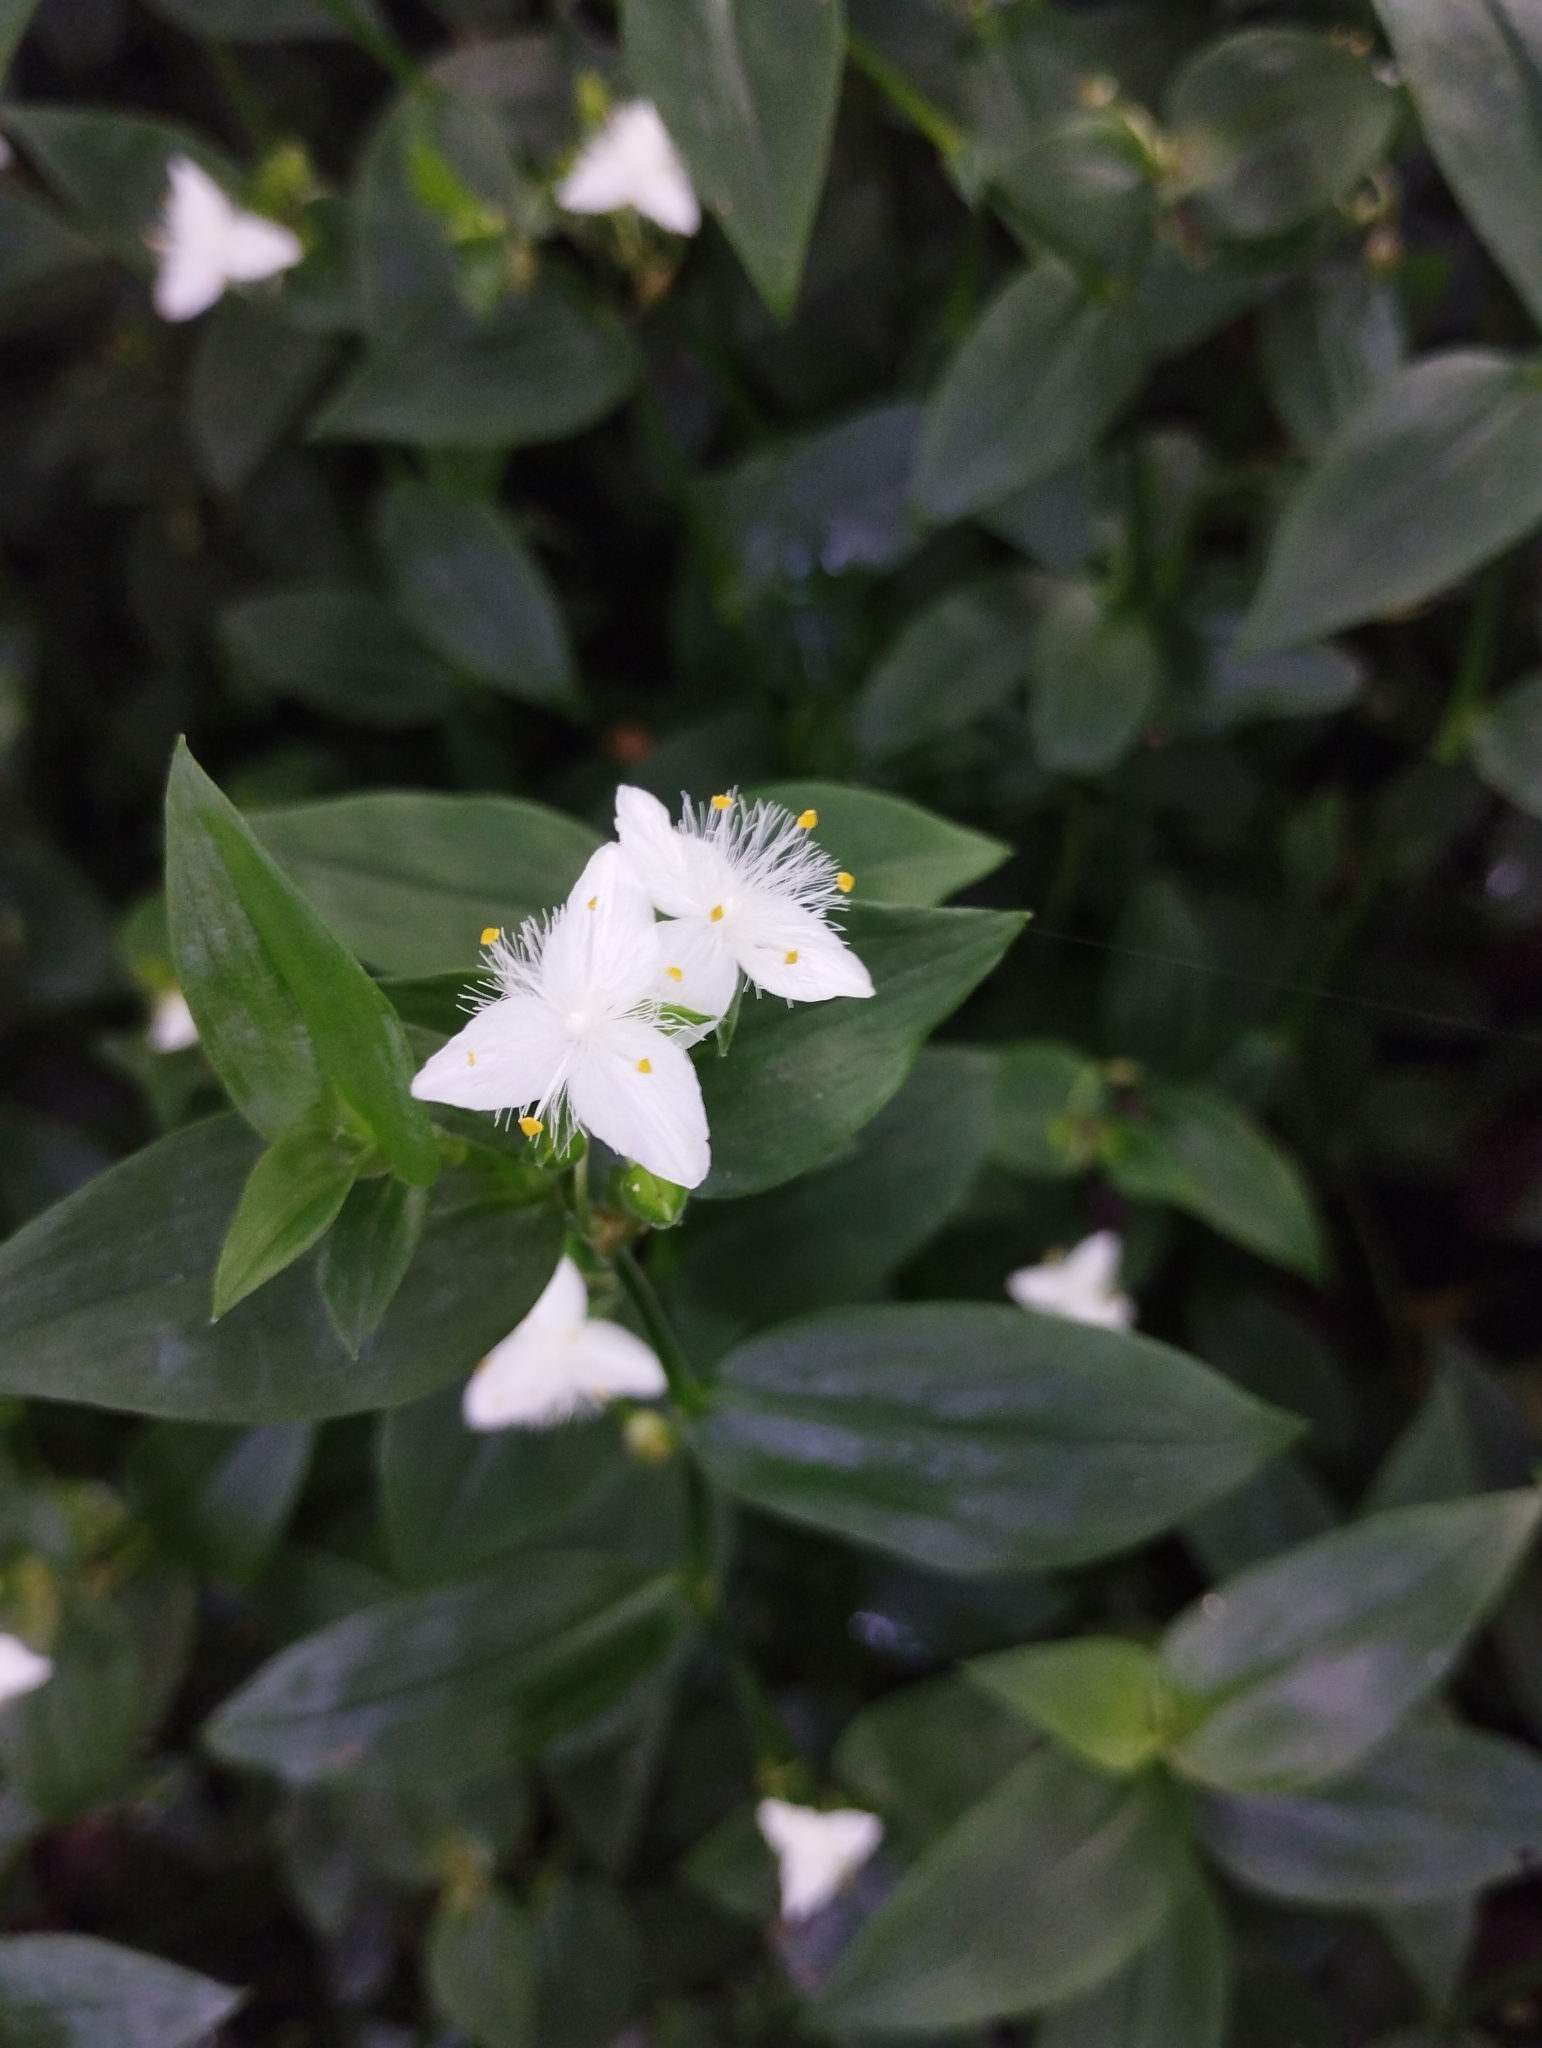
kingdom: Plantae
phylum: Tracheophyta
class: Liliopsida
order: Commelinales
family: Commelinaceae
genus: Tradescantia
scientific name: Tradescantia fluminensis
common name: Wandering-jew
